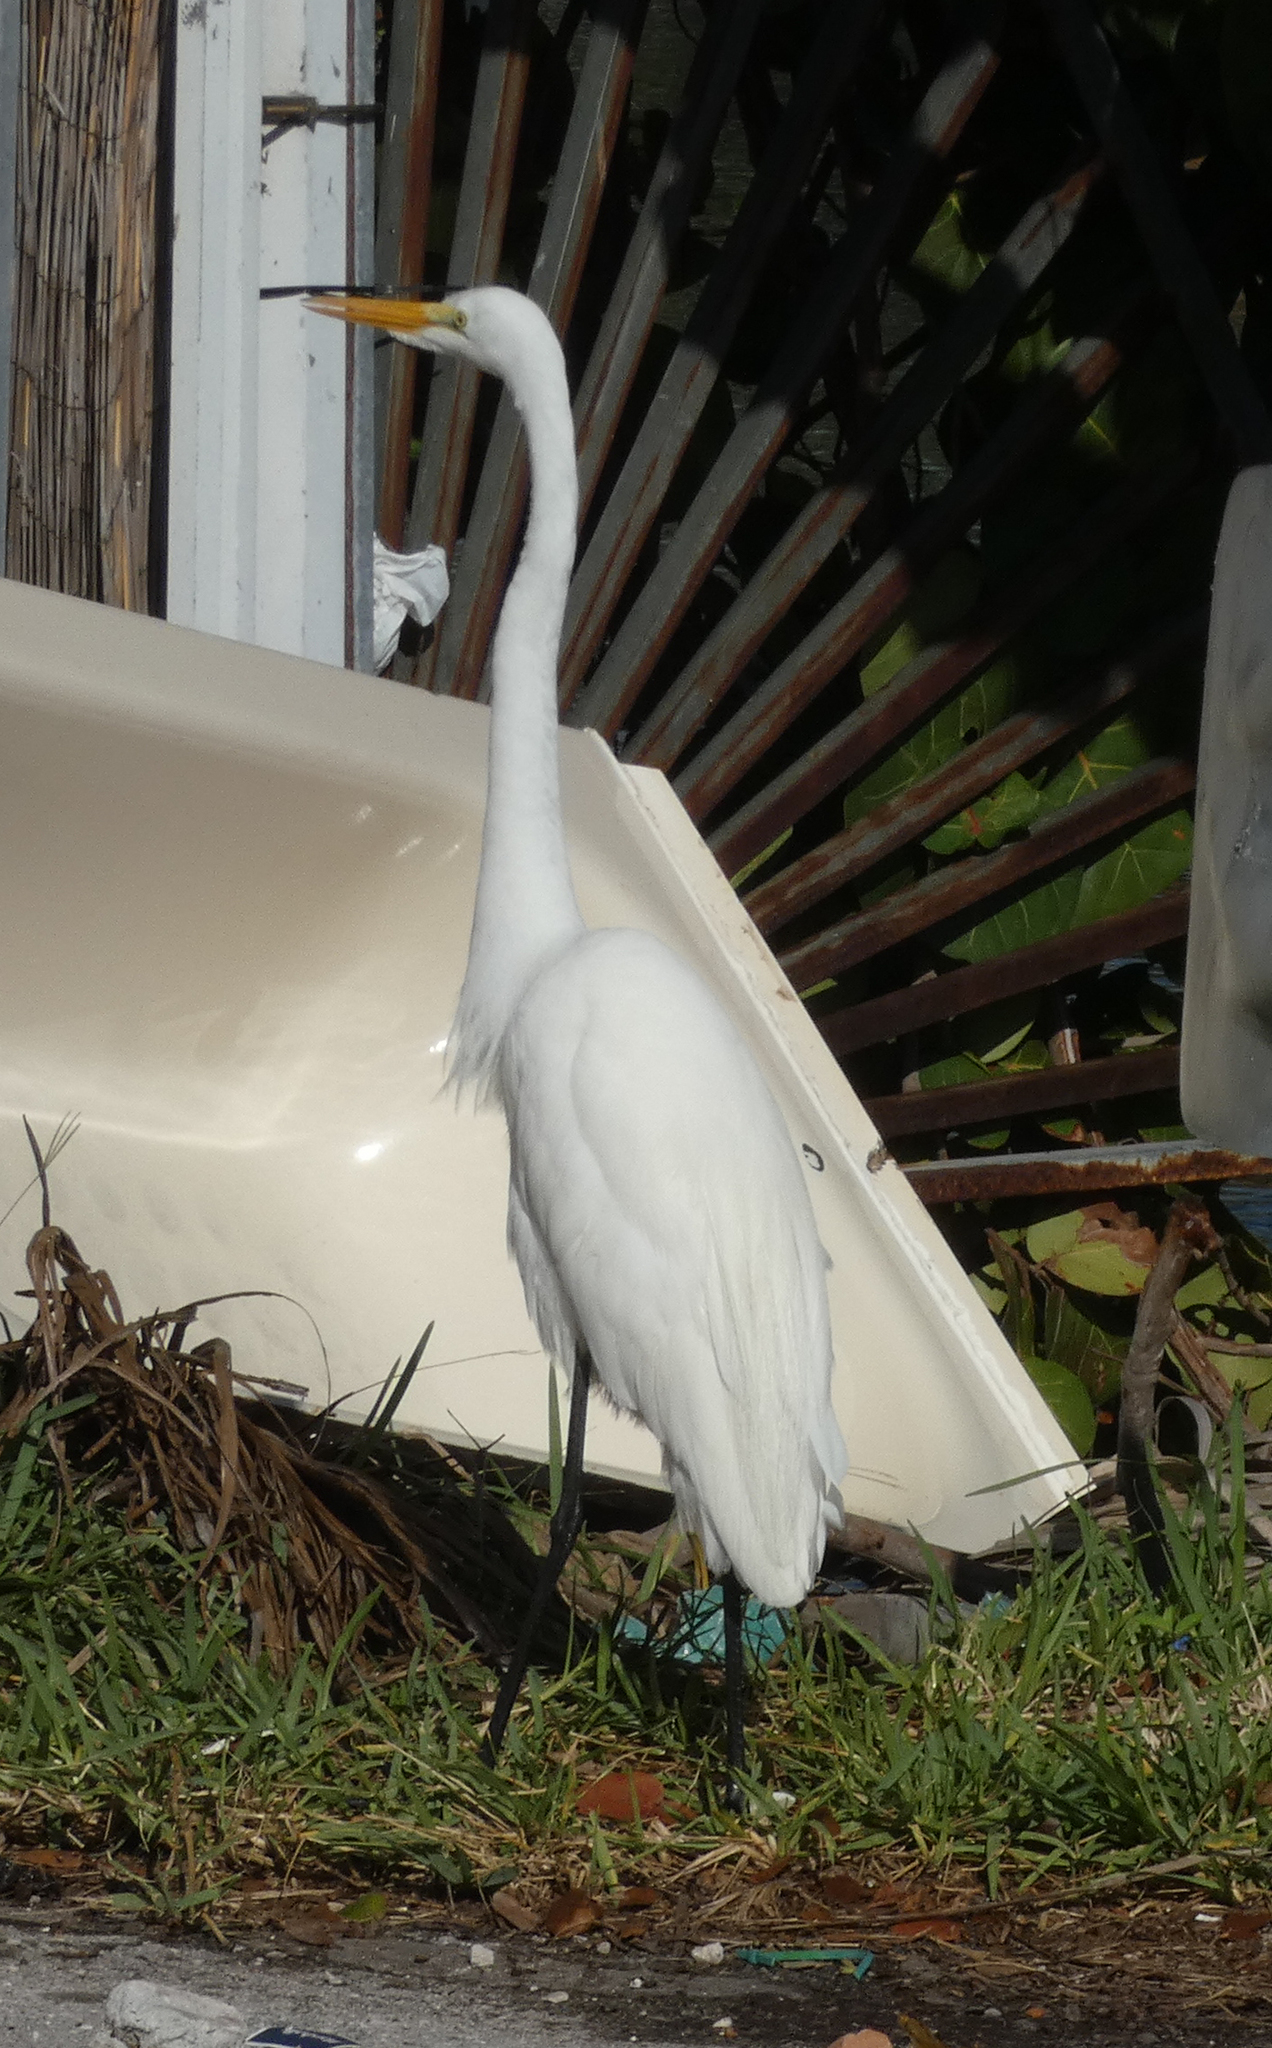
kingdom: Animalia
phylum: Chordata
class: Aves
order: Pelecaniformes
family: Ardeidae
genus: Ardea
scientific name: Ardea alba
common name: Great egret
